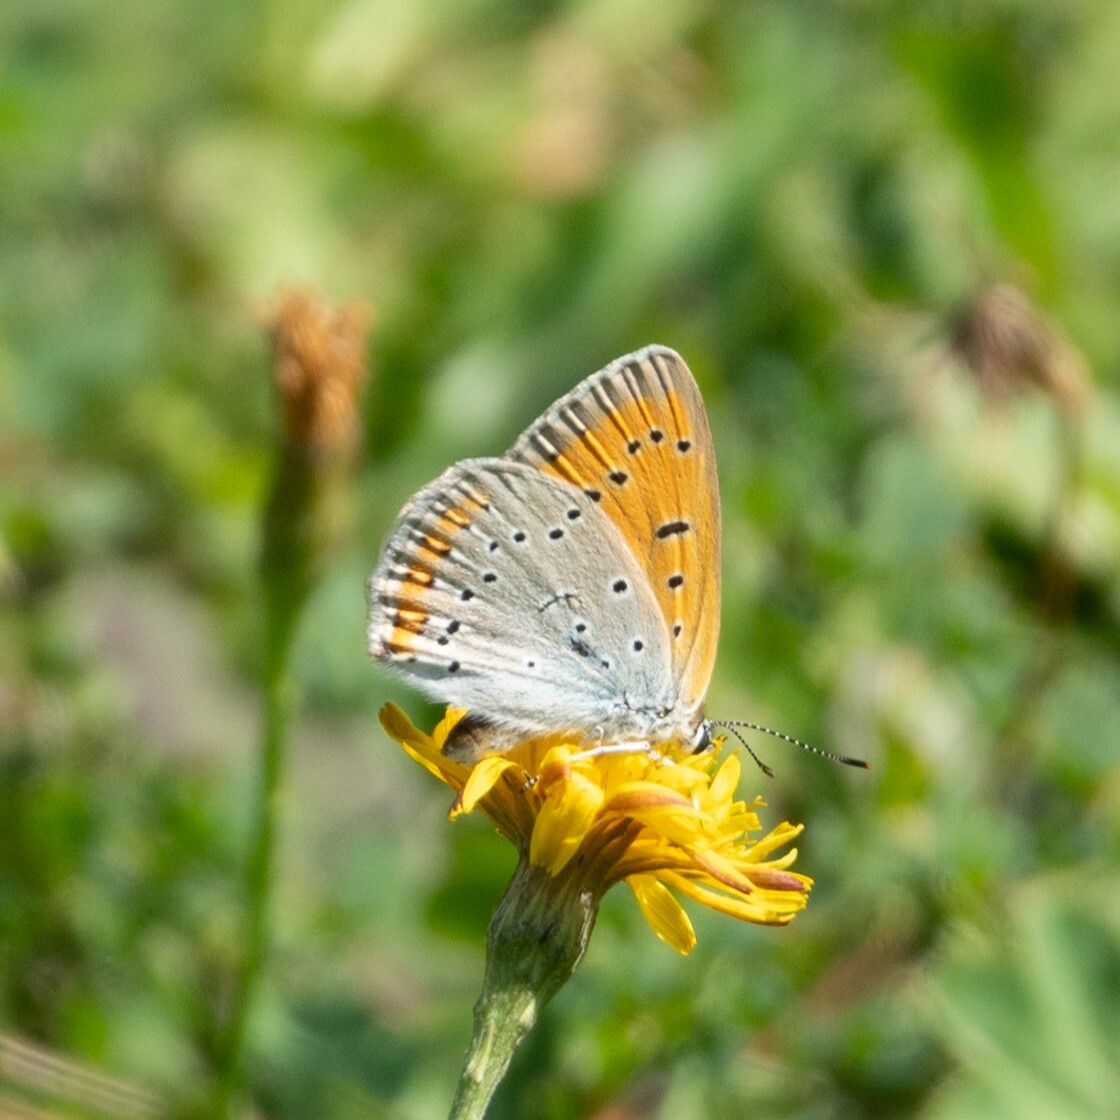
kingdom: Animalia
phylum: Arthropoda
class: Insecta
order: Lepidoptera
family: Lycaenidae
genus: Lycaena
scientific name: Lycaena dispar
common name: Large copper
